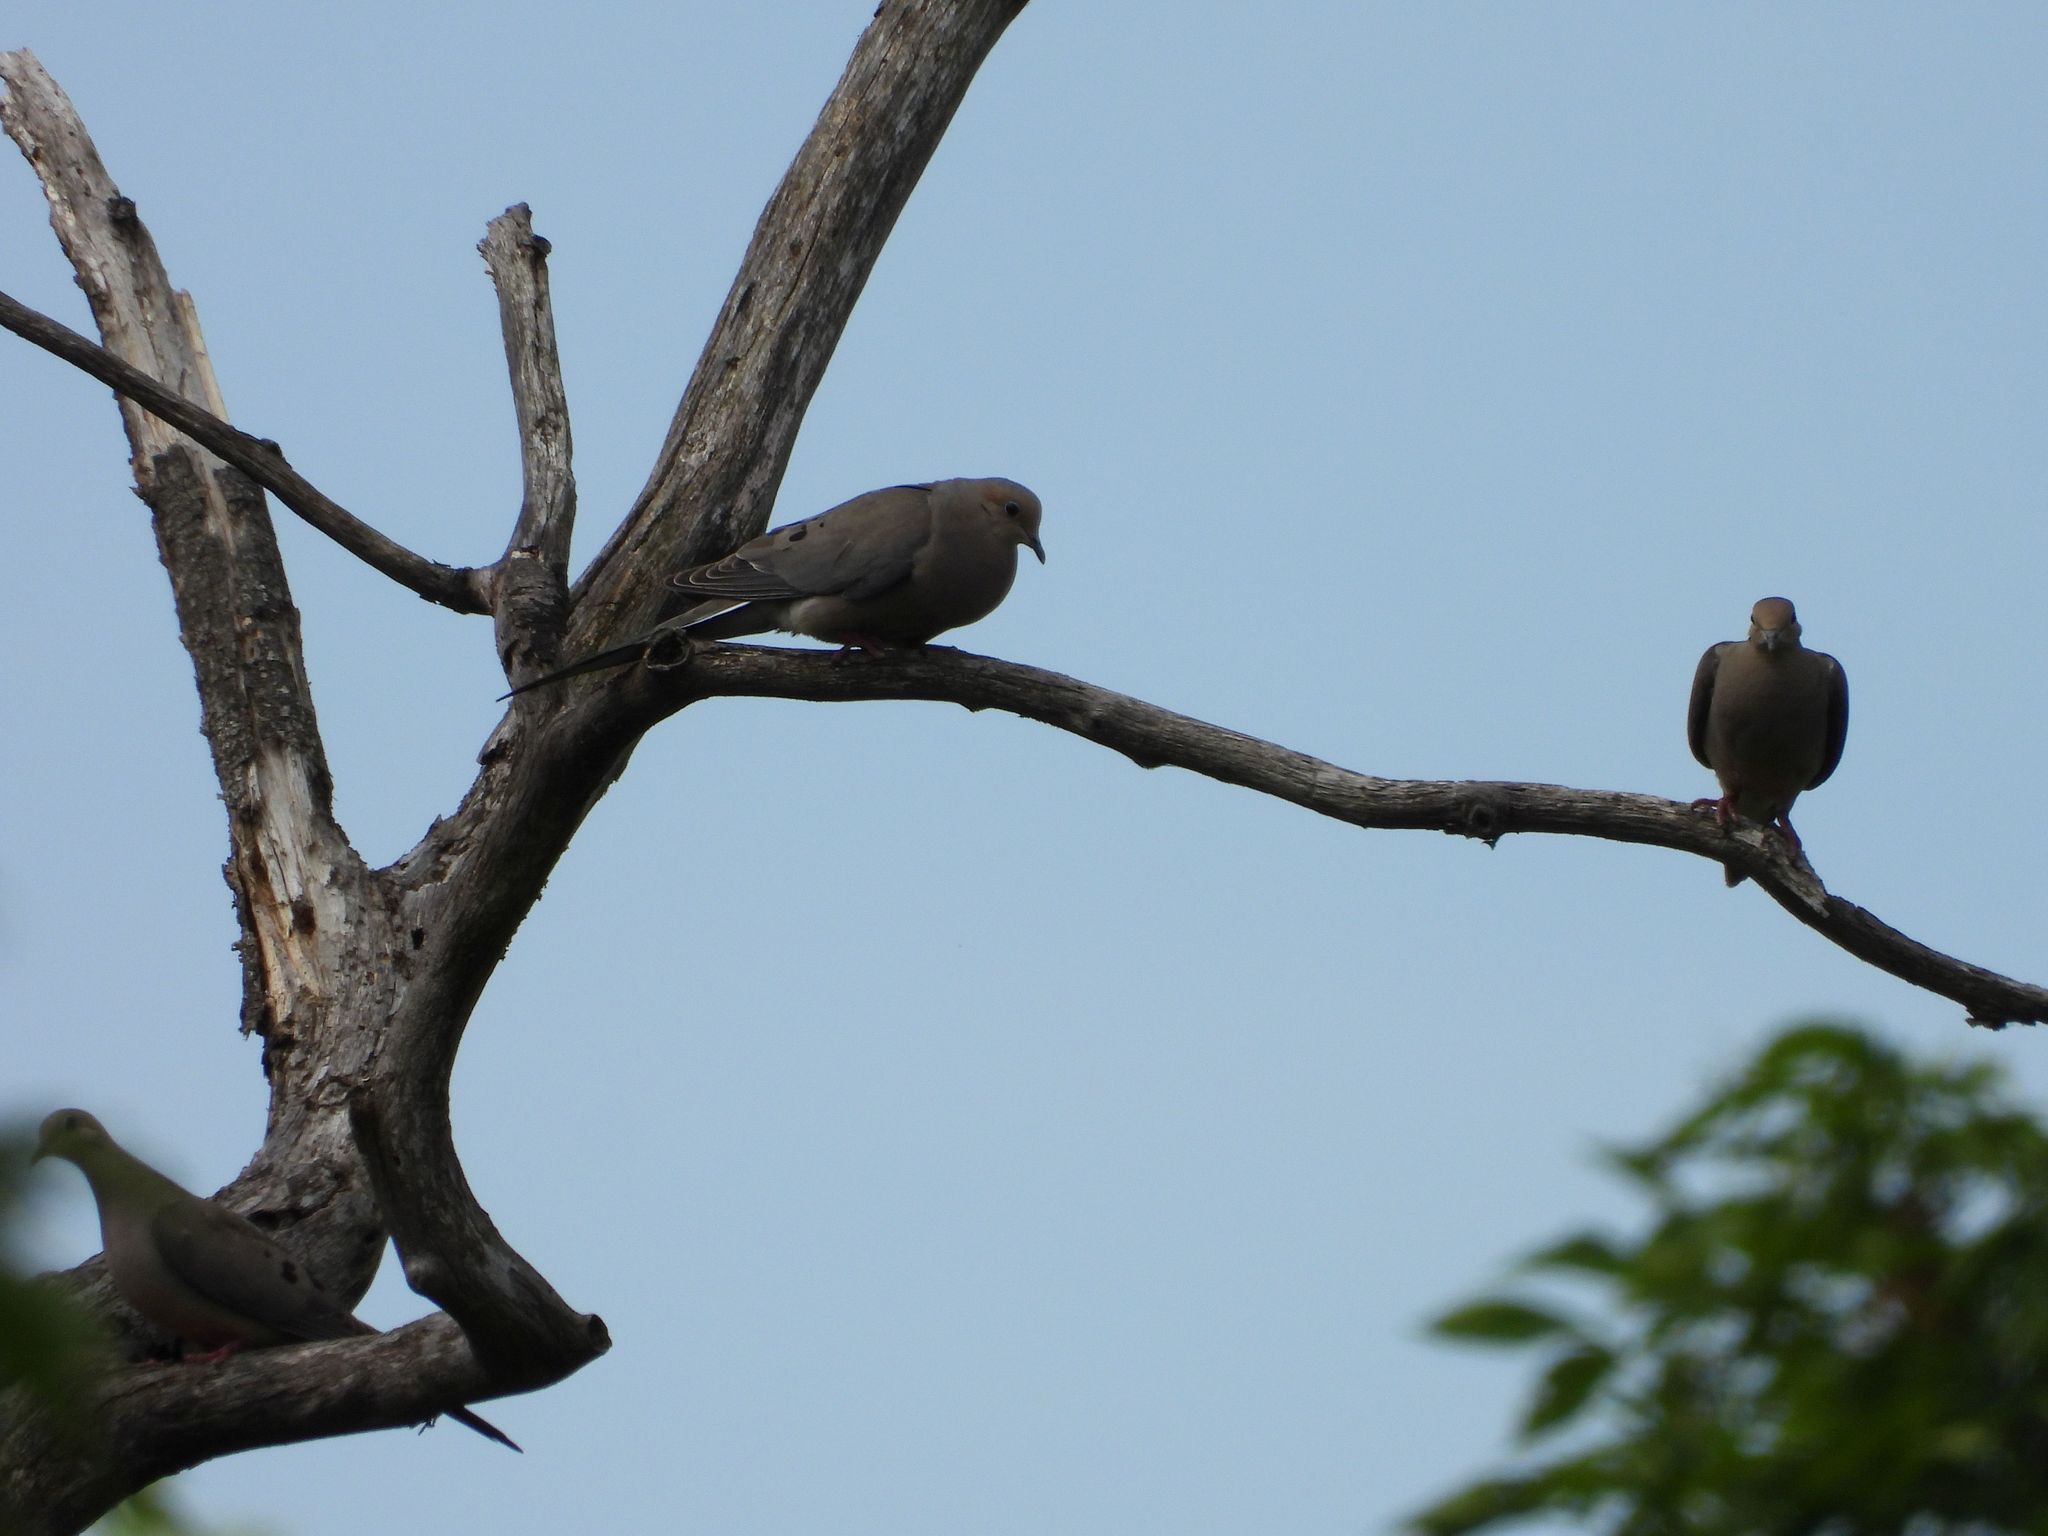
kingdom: Animalia
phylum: Chordata
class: Aves
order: Columbiformes
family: Columbidae
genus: Zenaida
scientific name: Zenaida macroura
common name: Mourning dove
